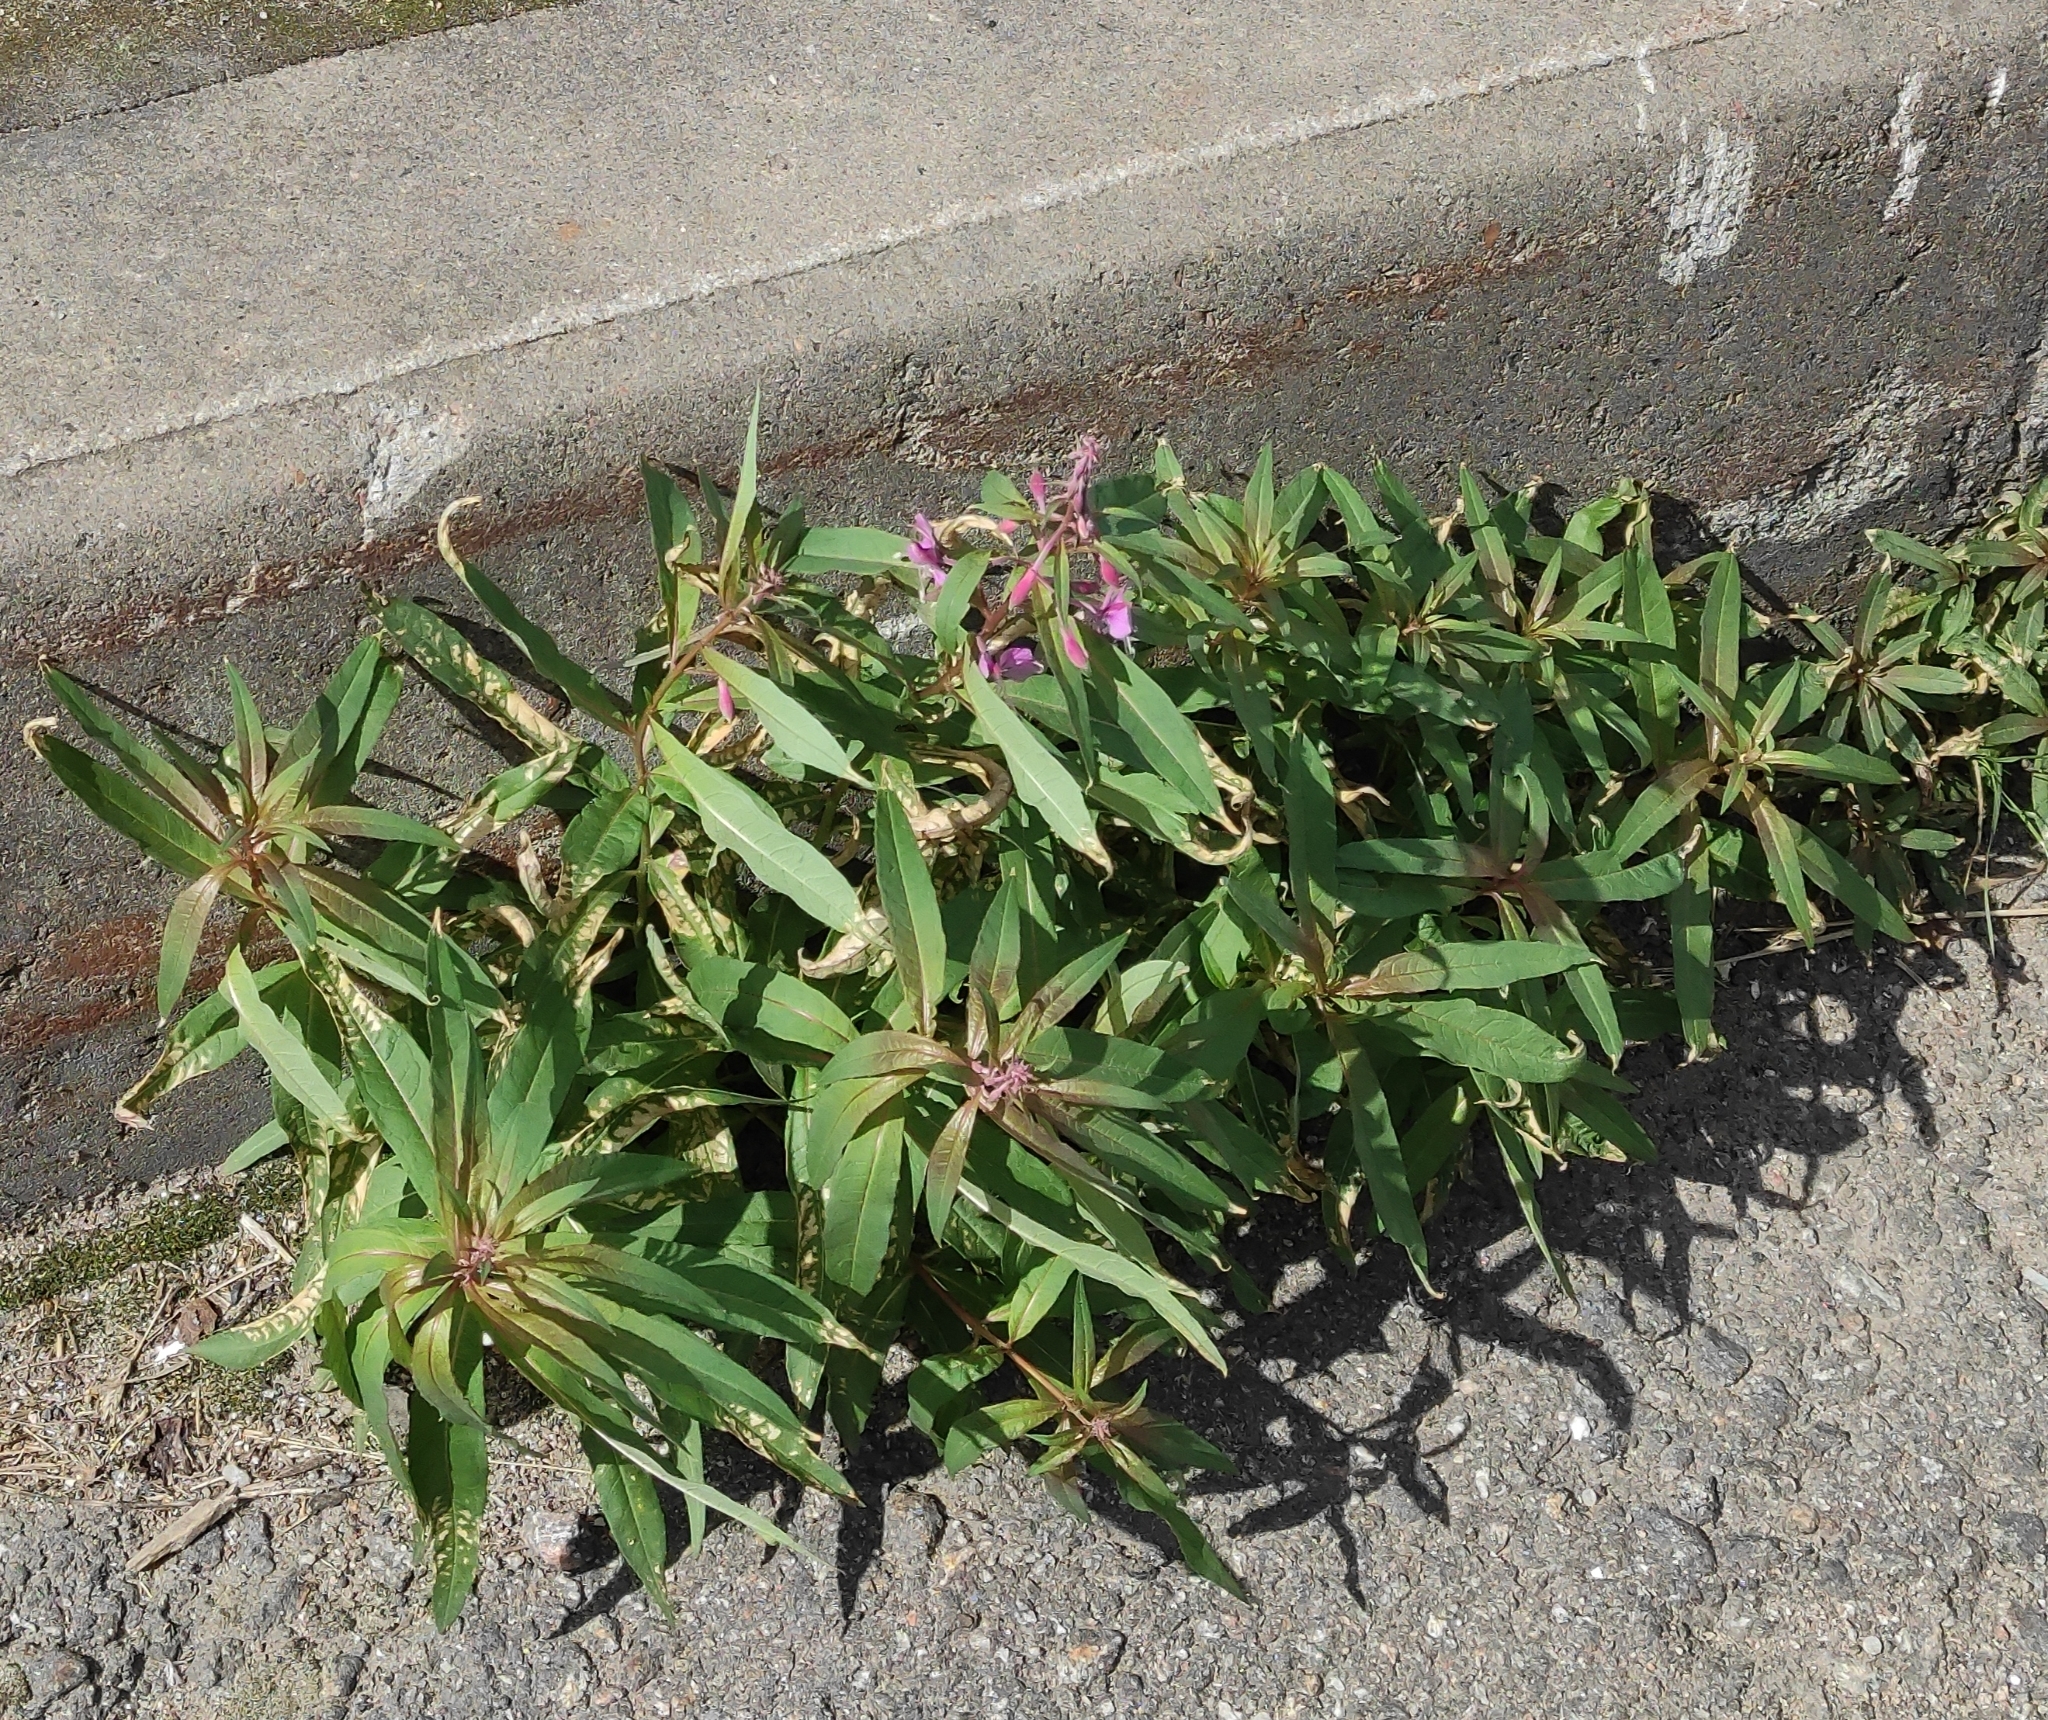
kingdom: Plantae
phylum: Tracheophyta
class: Magnoliopsida
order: Myrtales
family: Onagraceae
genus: Chamaenerion
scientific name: Chamaenerion angustifolium
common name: Fireweed
